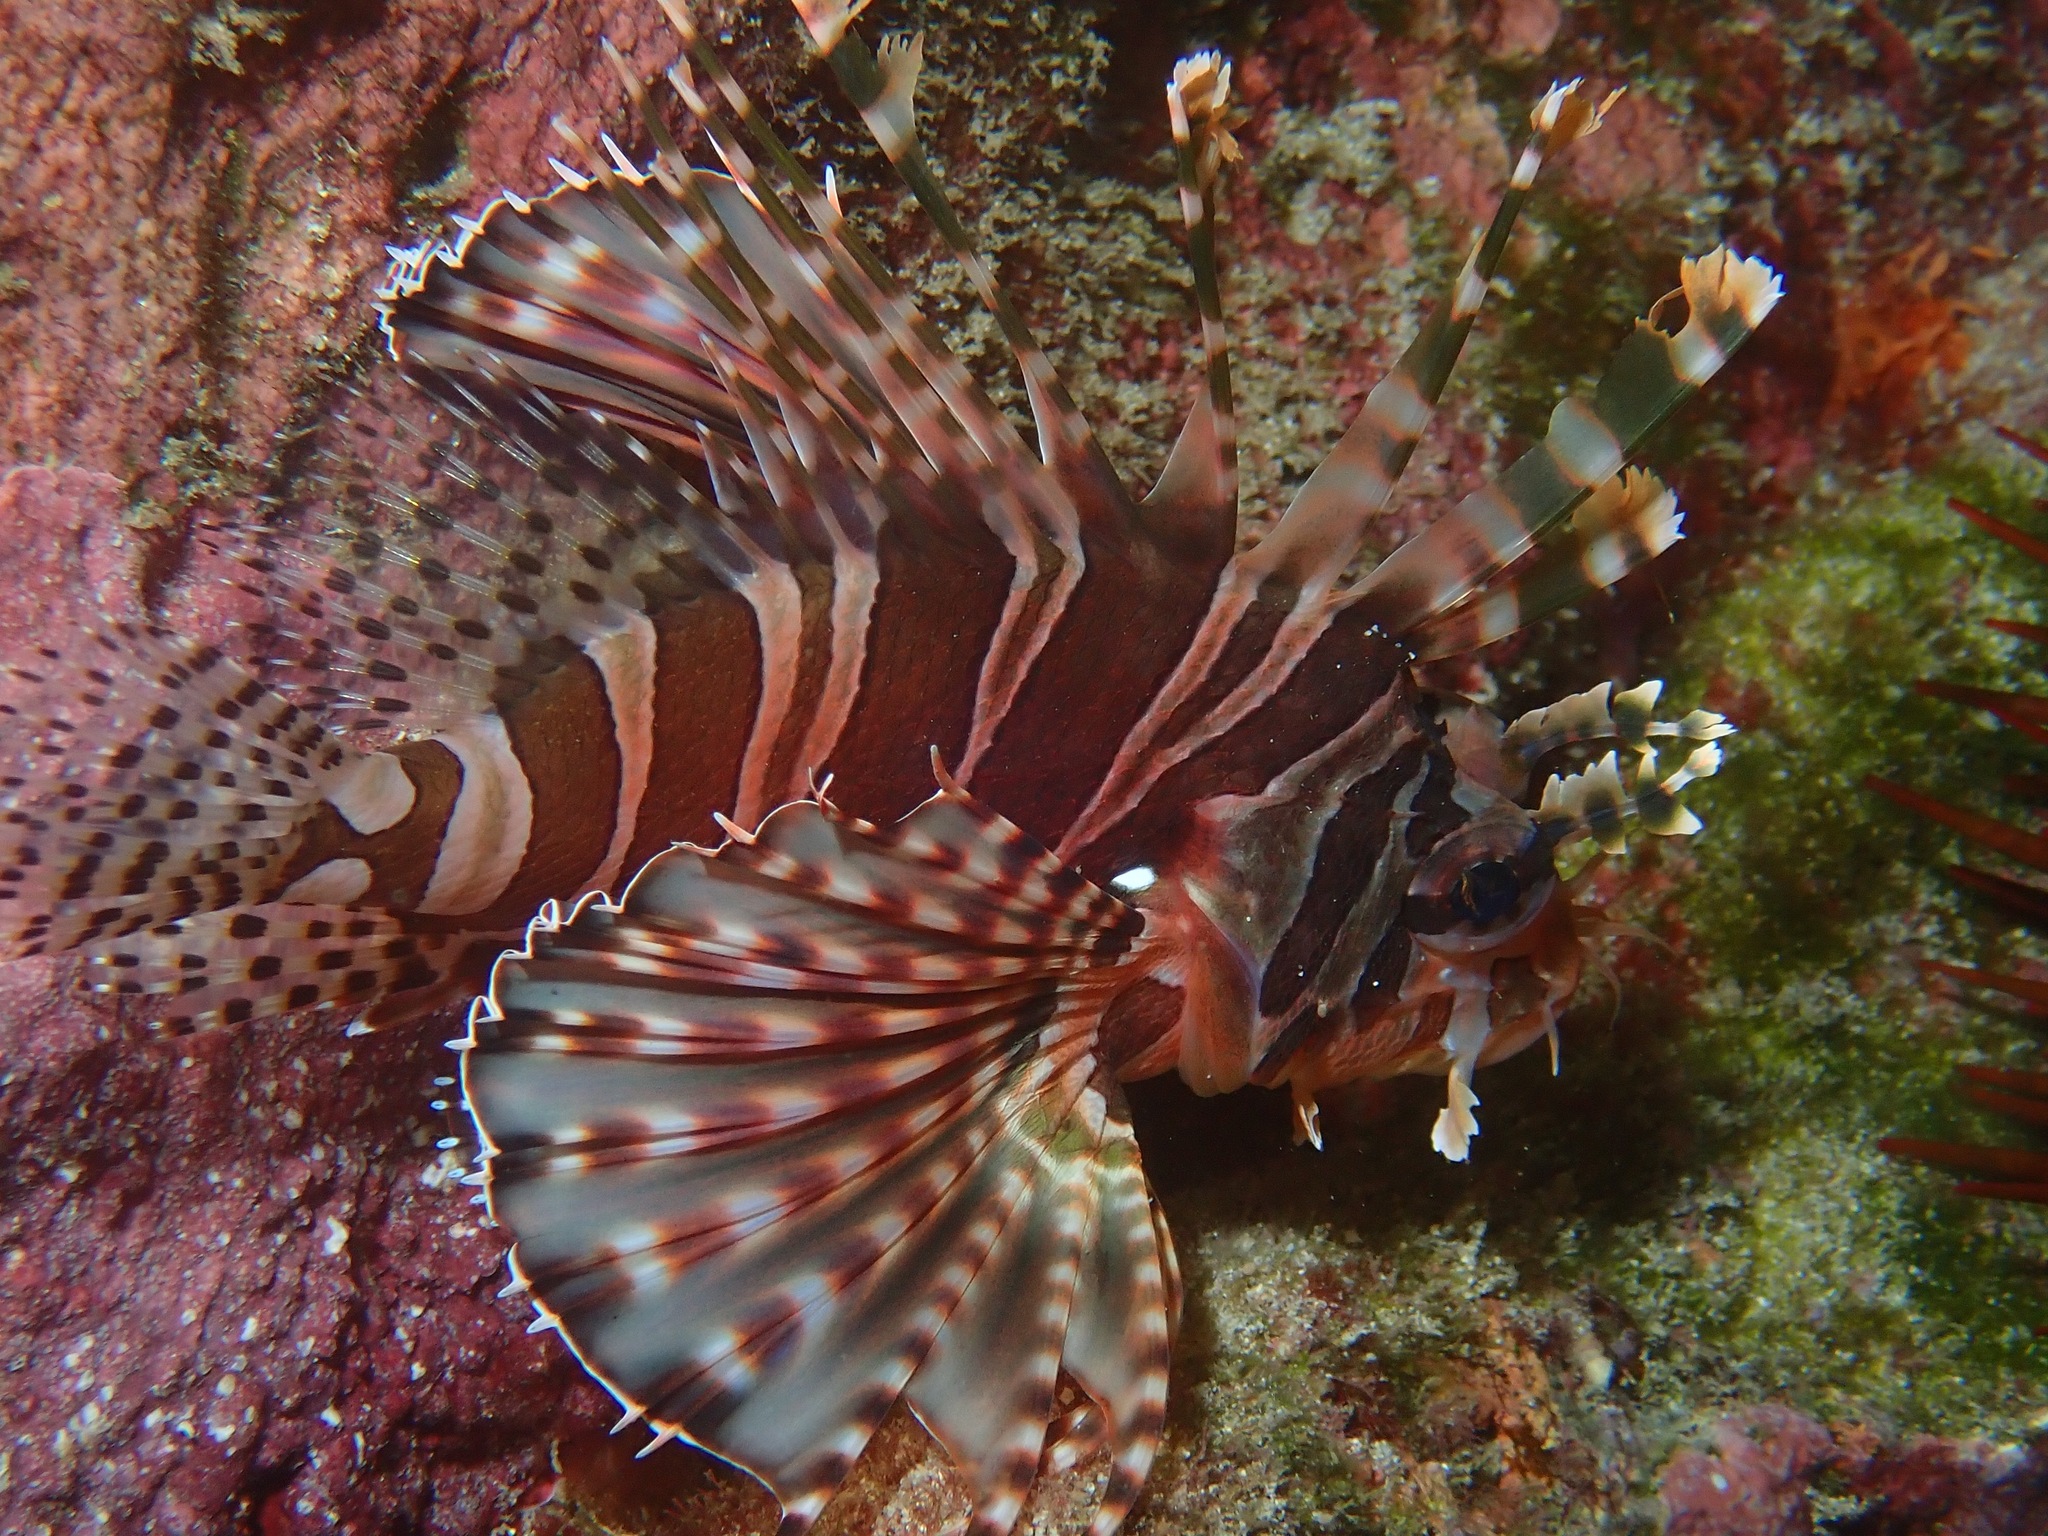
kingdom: Animalia
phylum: Chordata
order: Scorpaeniformes
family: Scorpaenidae
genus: Dendrochirus
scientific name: Dendrochirus zebra
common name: Zebra lionfish
